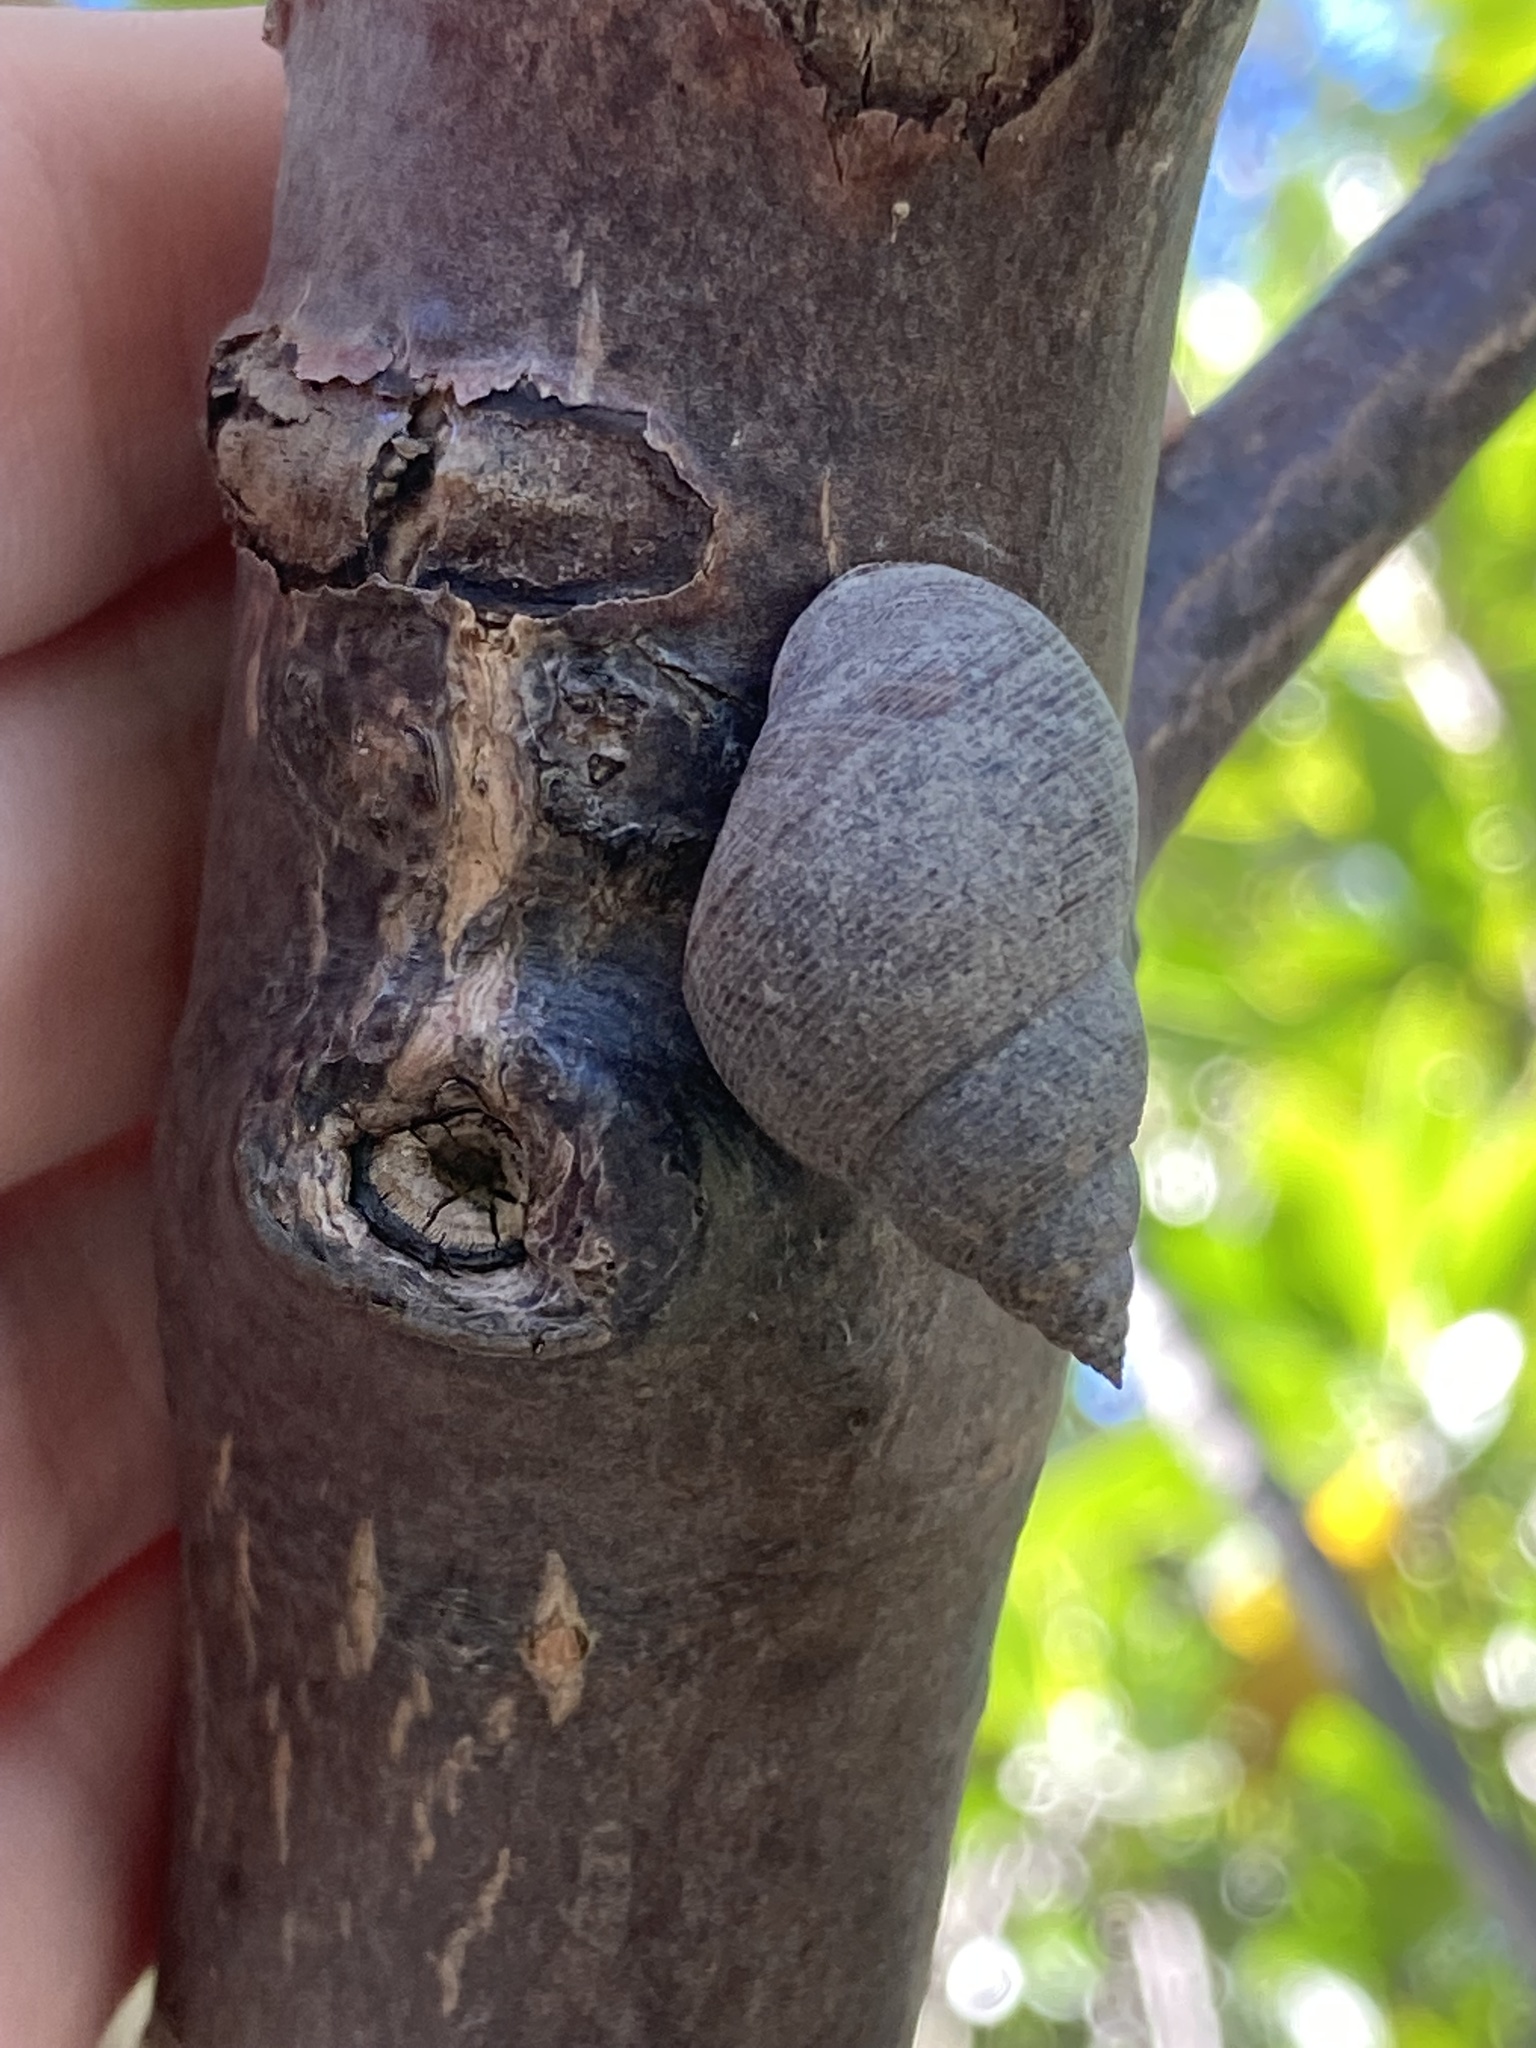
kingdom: Animalia
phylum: Mollusca
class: Gastropoda
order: Littorinimorpha
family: Littorinidae
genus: Littoraria
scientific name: Littoraria angulifera
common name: Mangrove periwinkle
